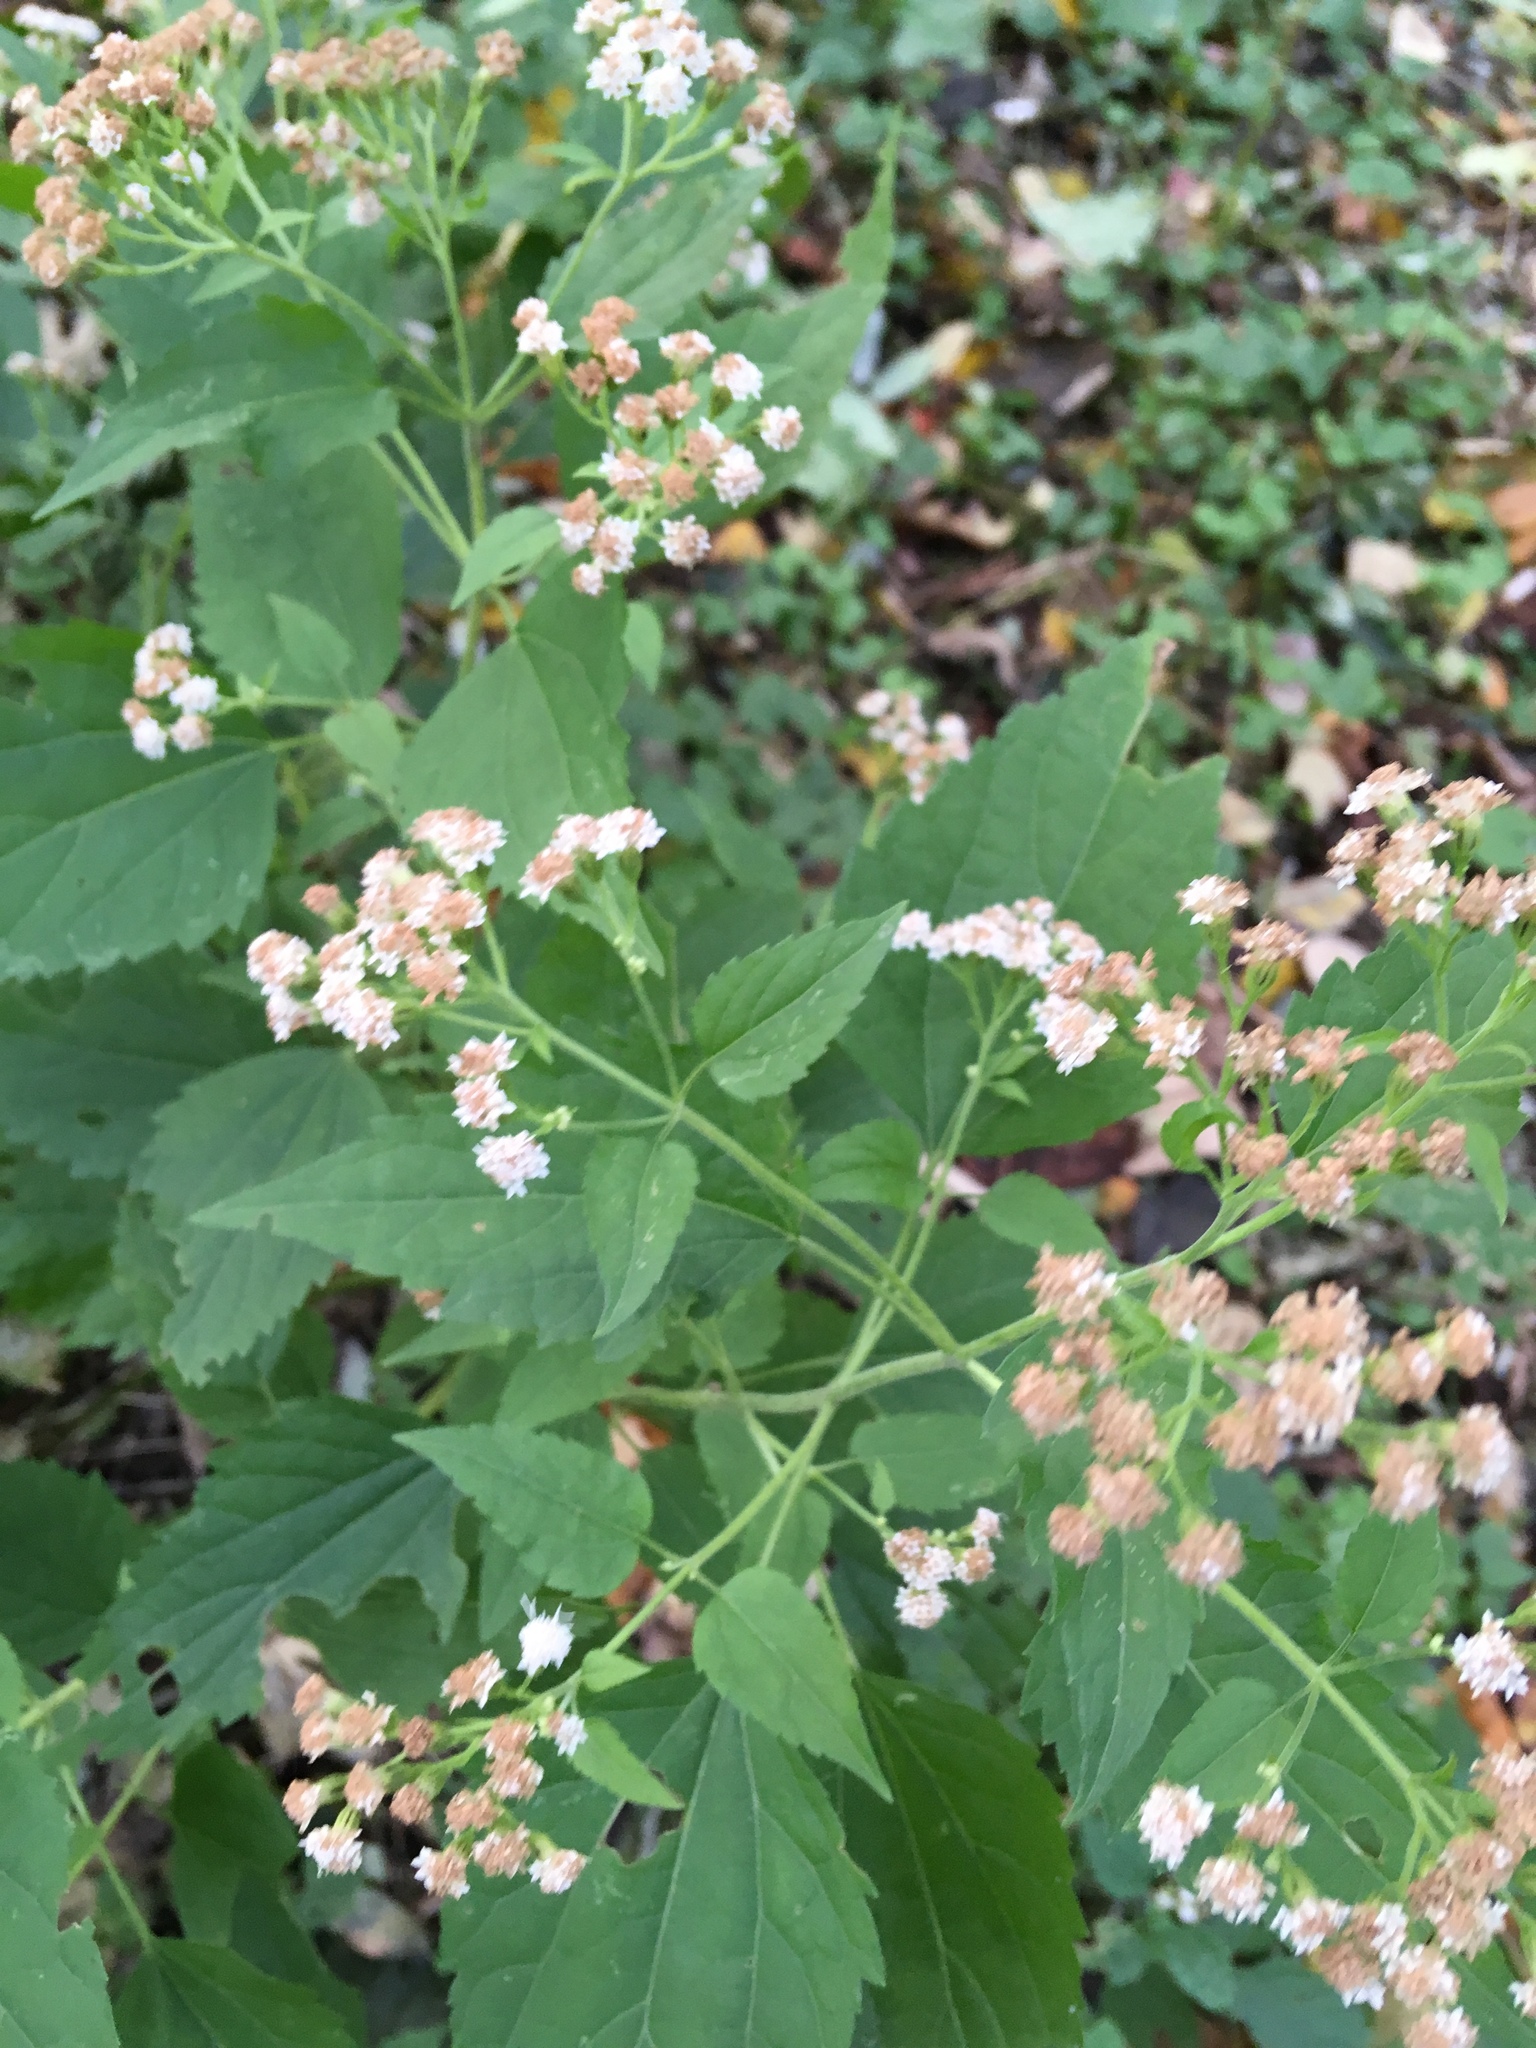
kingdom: Plantae
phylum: Tracheophyta
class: Magnoliopsida
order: Asterales
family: Asteraceae
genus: Ageratina
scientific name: Ageratina altissima
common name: White snakeroot
